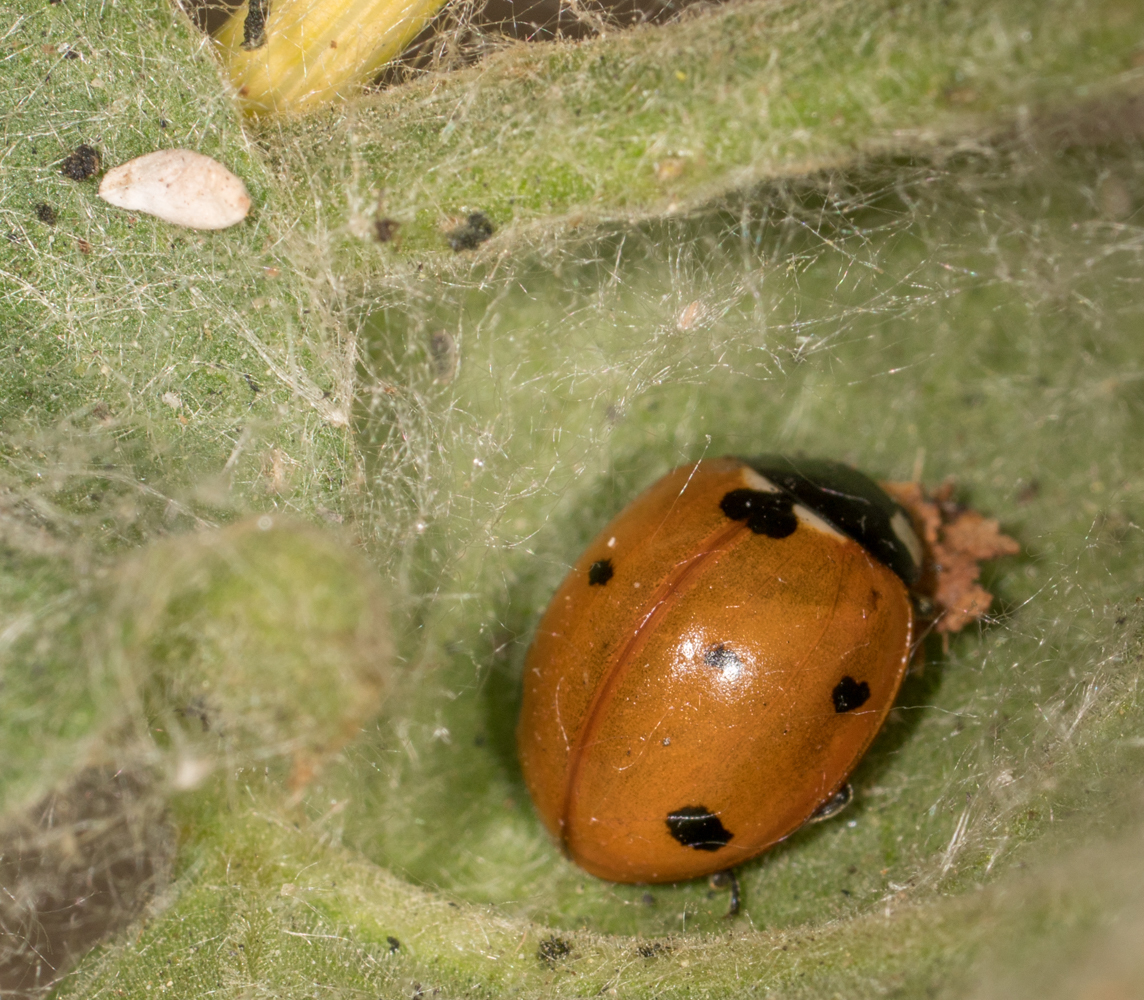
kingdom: Animalia
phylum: Arthropoda
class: Insecta
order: Coleoptera
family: Coccinellidae
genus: Coccinella
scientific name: Coccinella septempunctata
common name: Sevenspotted lady beetle
